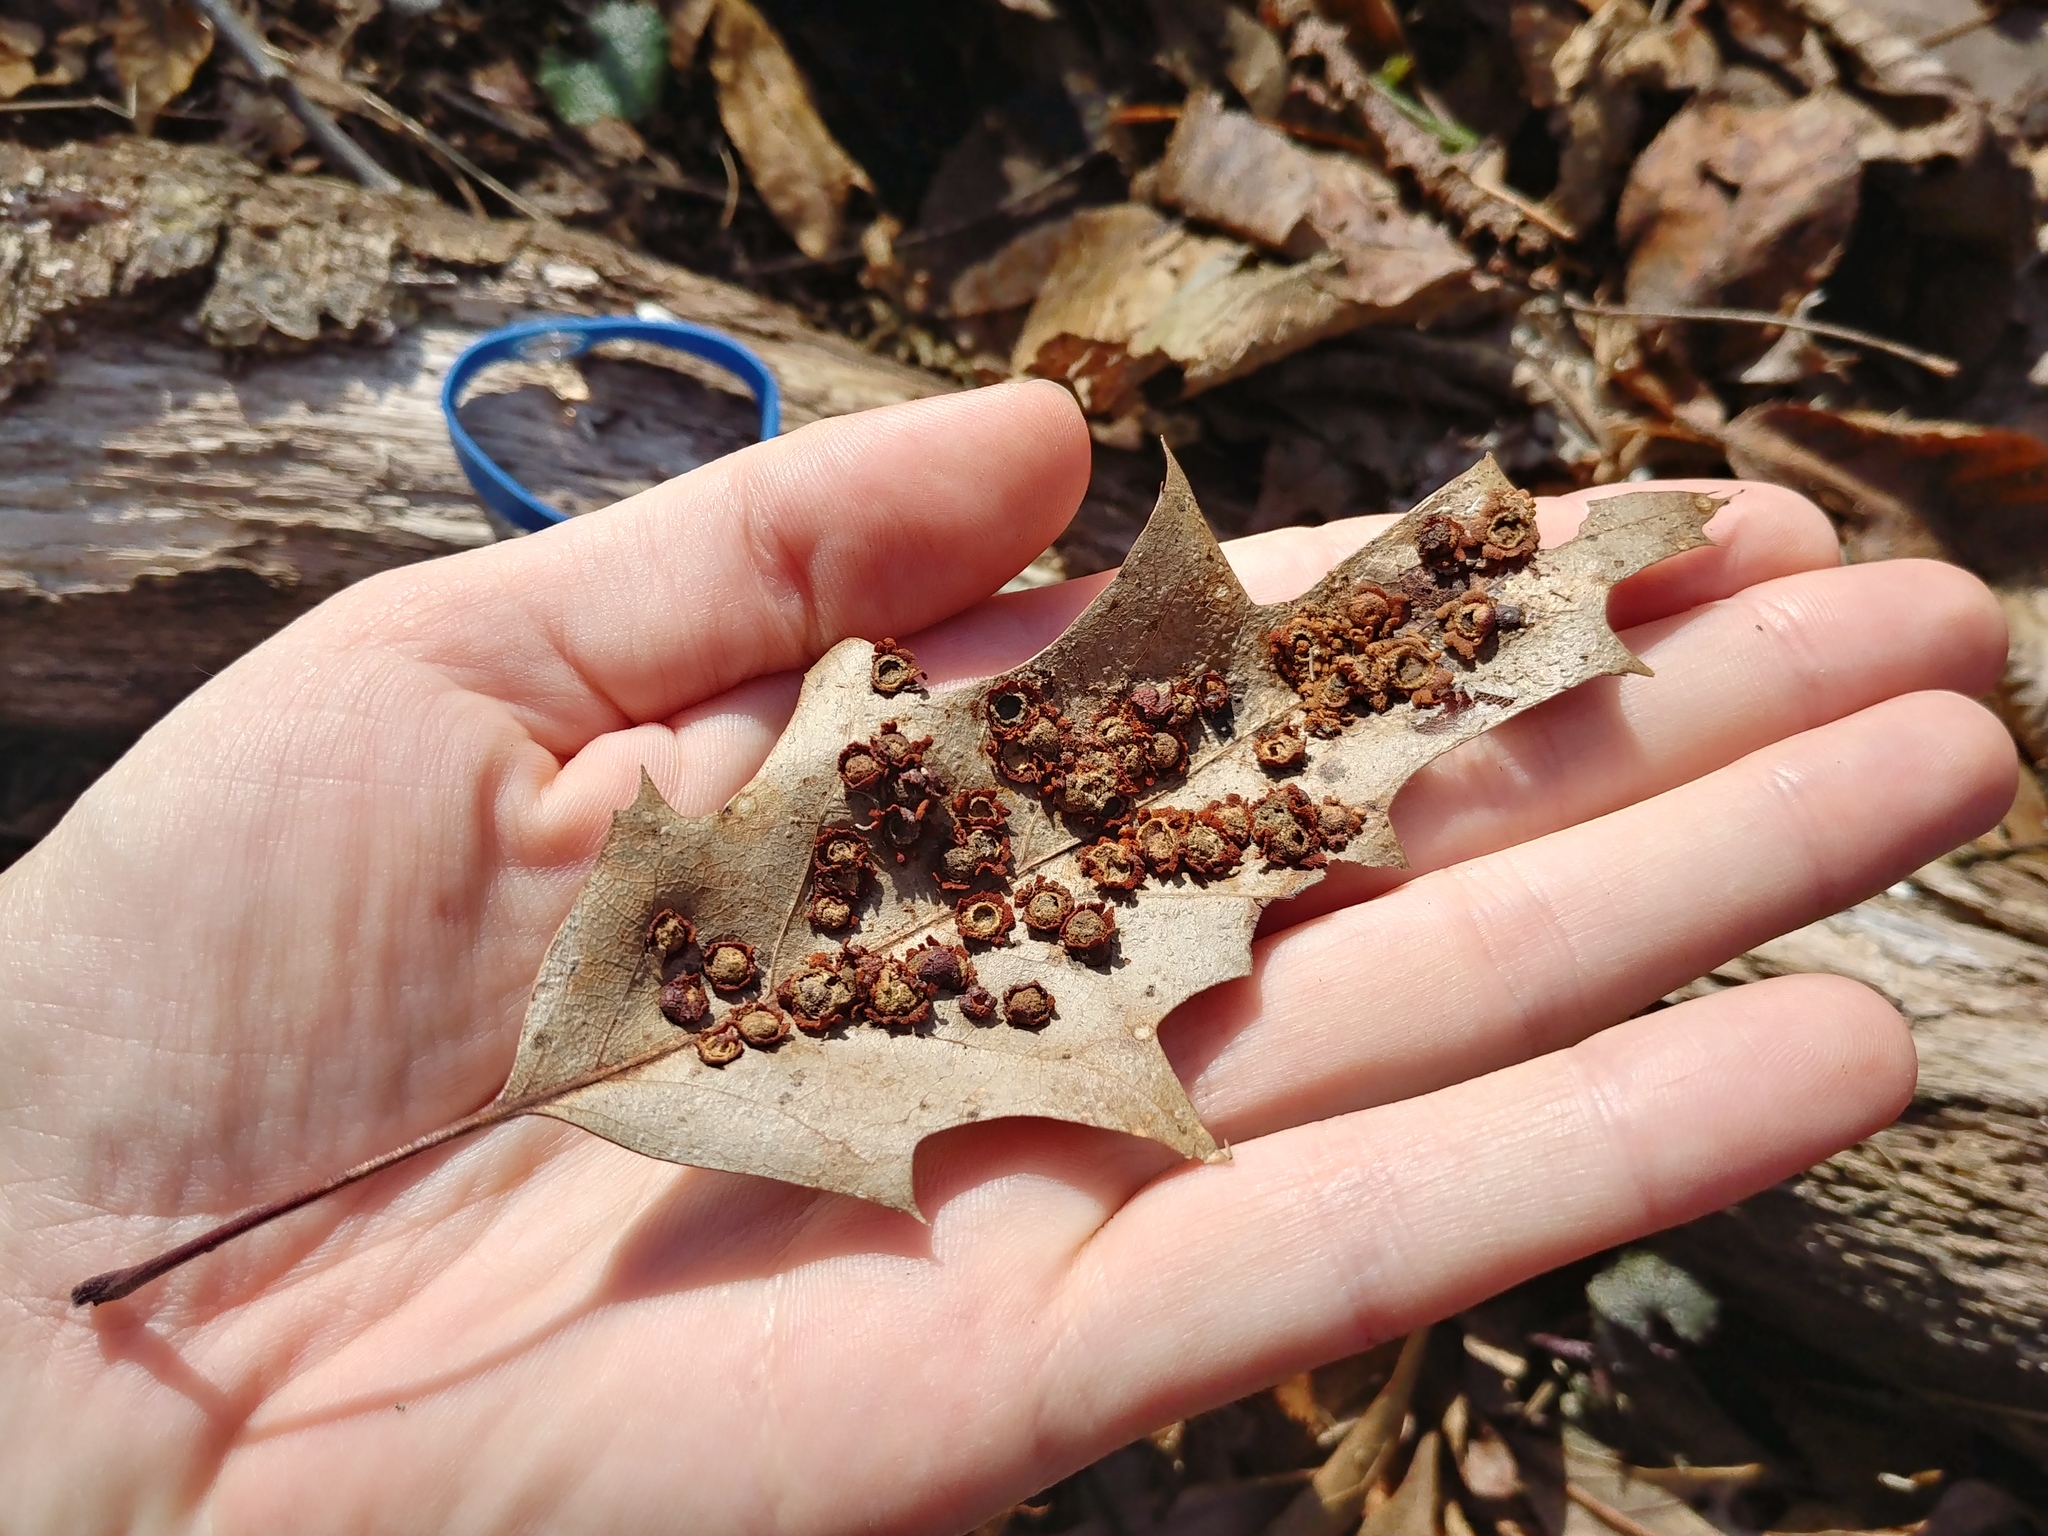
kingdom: Animalia
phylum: Arthropoda
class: Insecta
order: Diptera
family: Cecidomyiidae
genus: Polystepha
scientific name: Polystepha pilulae
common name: Oak leaf gall midge
